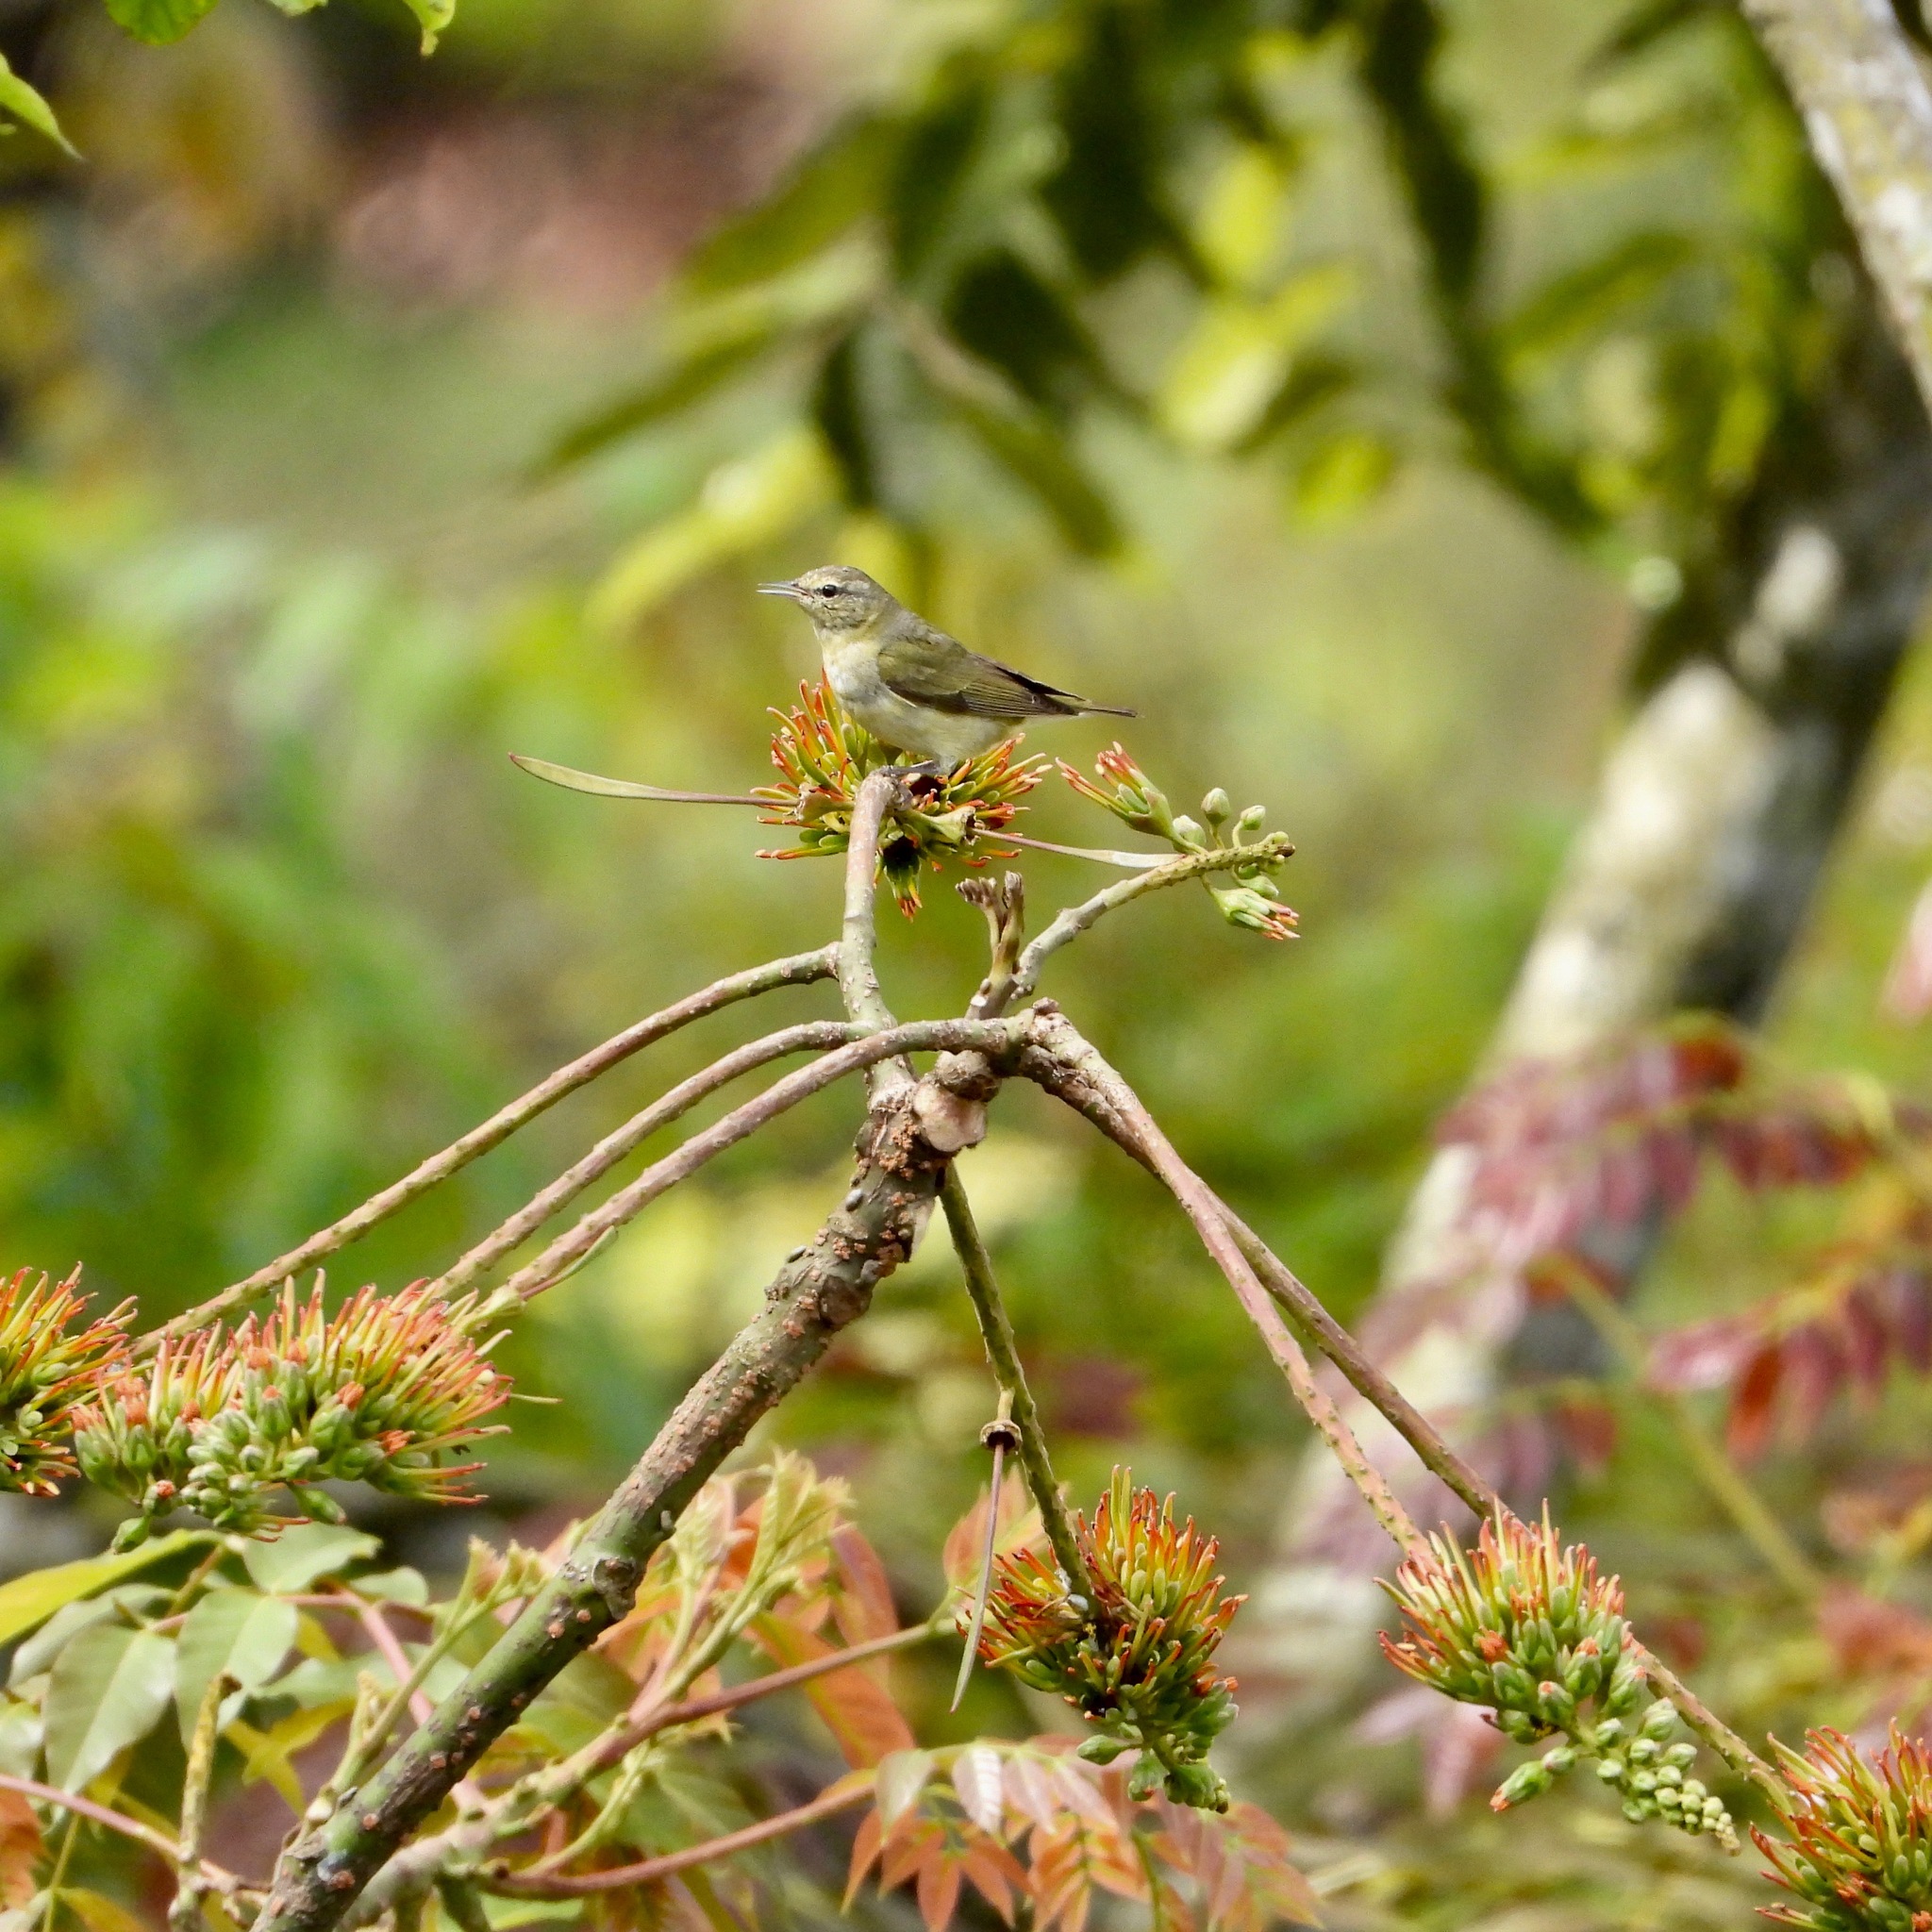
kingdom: Animalia
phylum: Chordata
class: Aves
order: Passeriformes
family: Parulidae
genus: Leiothlypis
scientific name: Leiothlypis peregrina
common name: Tennessee warbler
